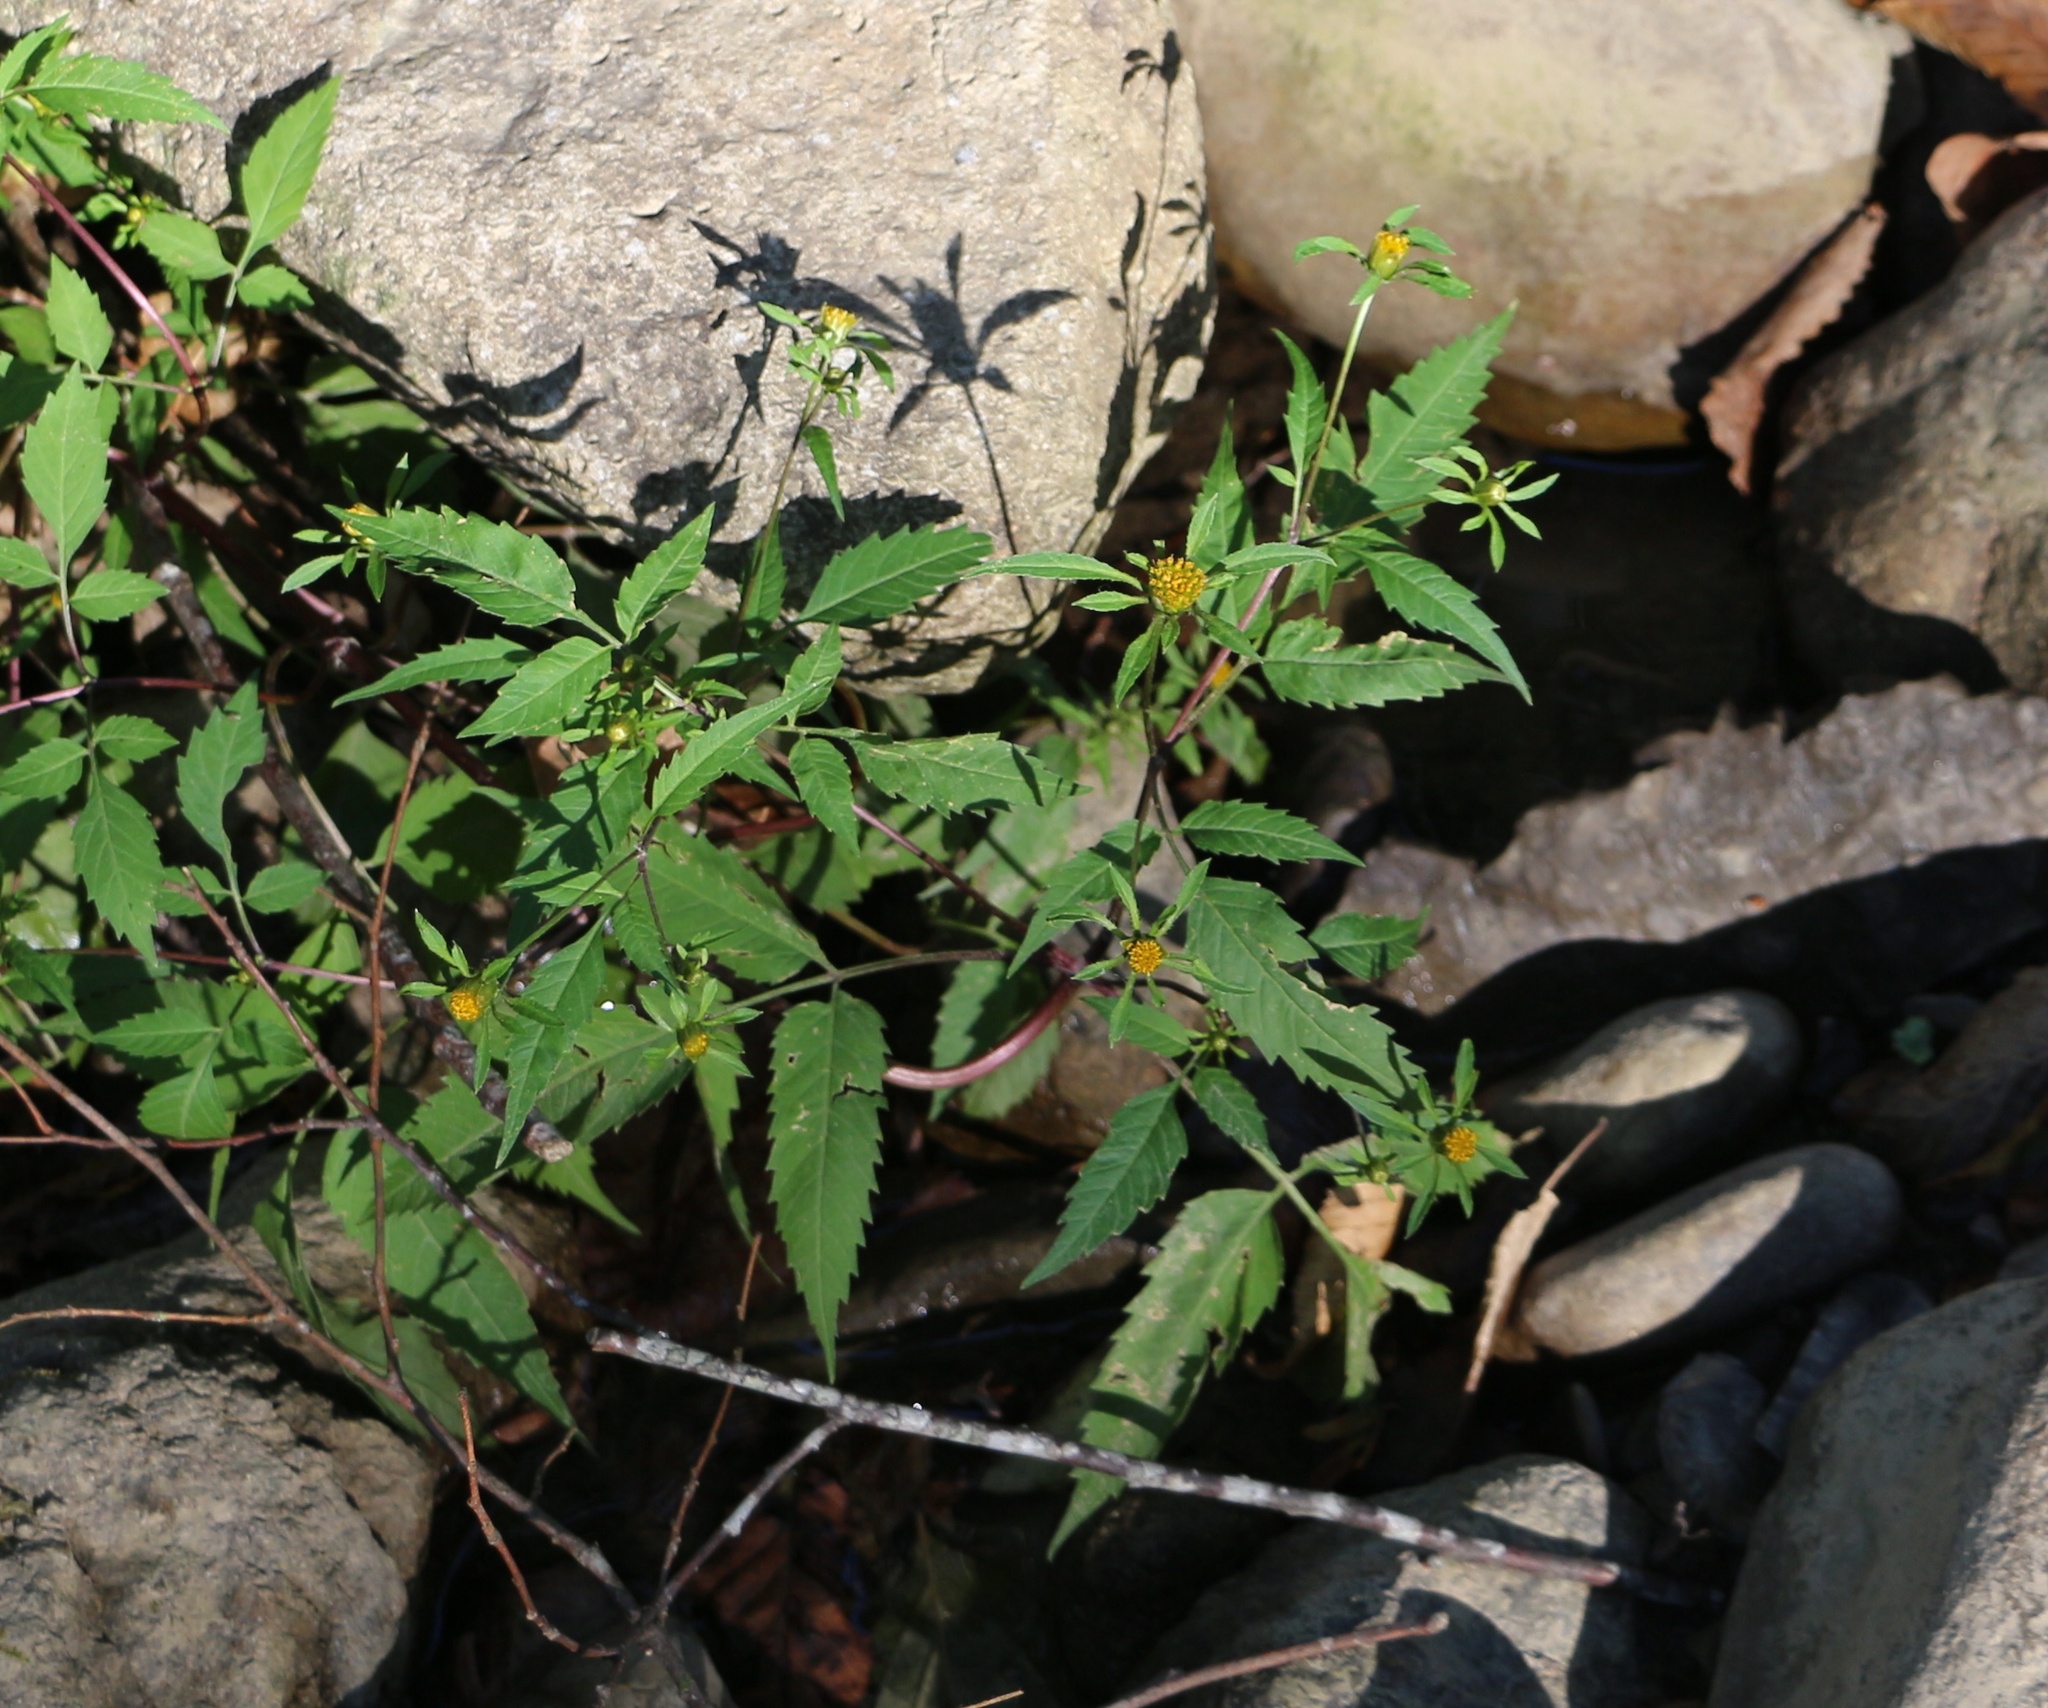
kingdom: Plantae
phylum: Tracheophyta
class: Magnoliopsida
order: Asterales
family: Asteraceae
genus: Bidens
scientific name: Bidens frondosa
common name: Beggarticks
